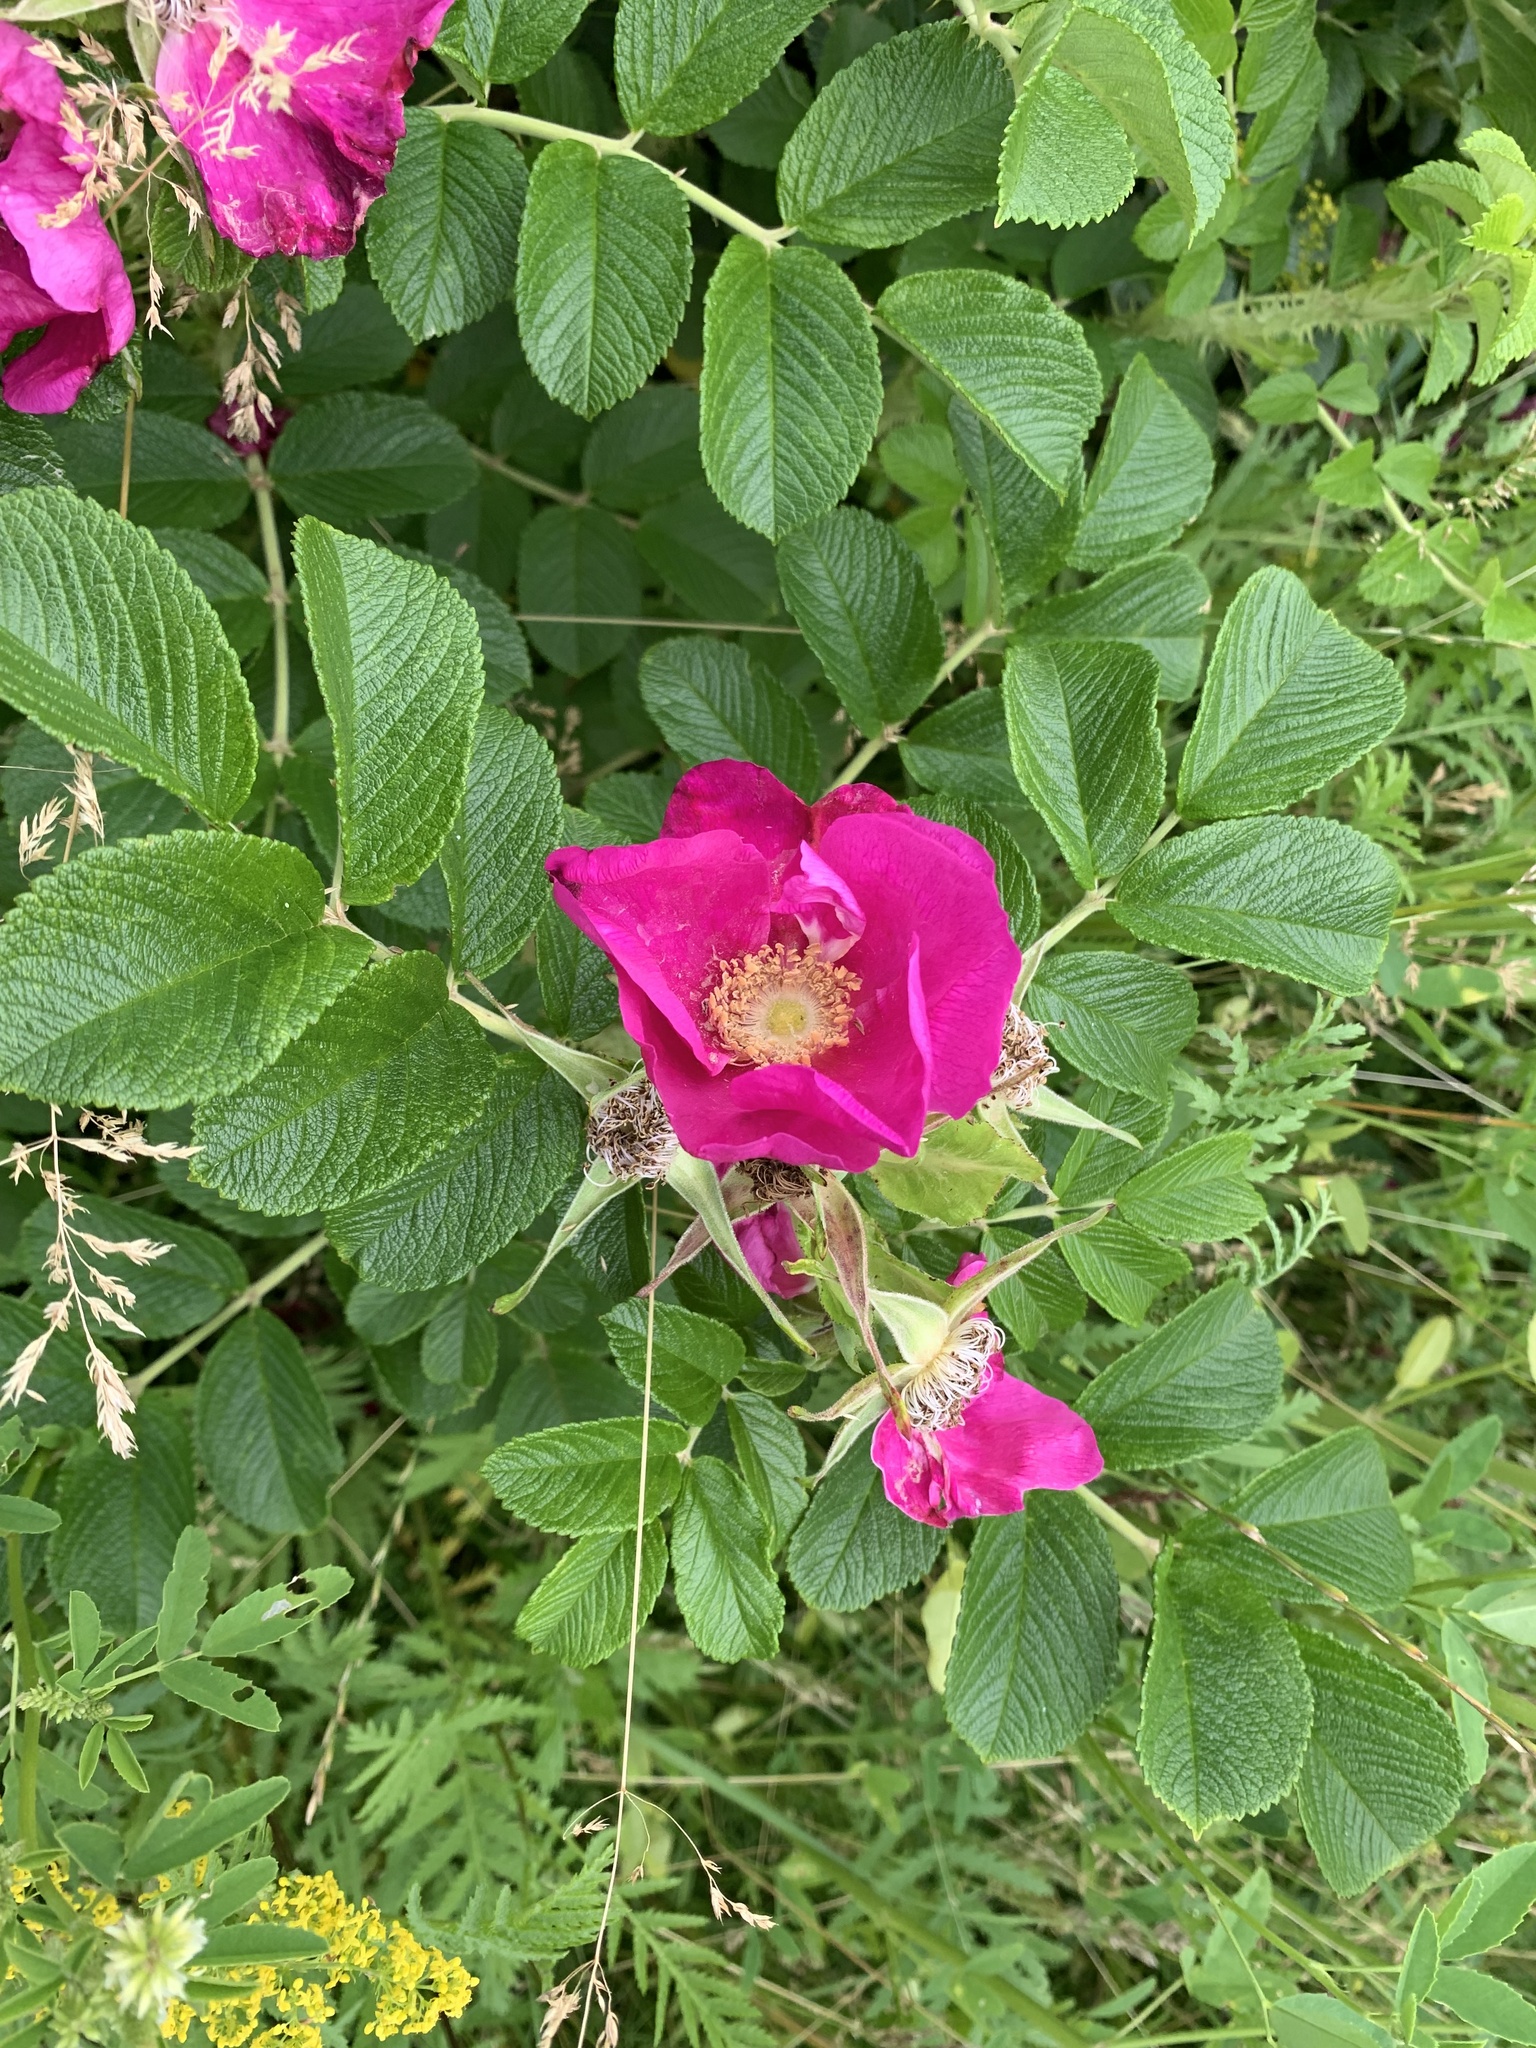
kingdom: Plantae
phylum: Tracheophyta
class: Magnoliopsida
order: Rosales
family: Rosaceae
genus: Rosa
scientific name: Rosa rugosa
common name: Japanese rose
